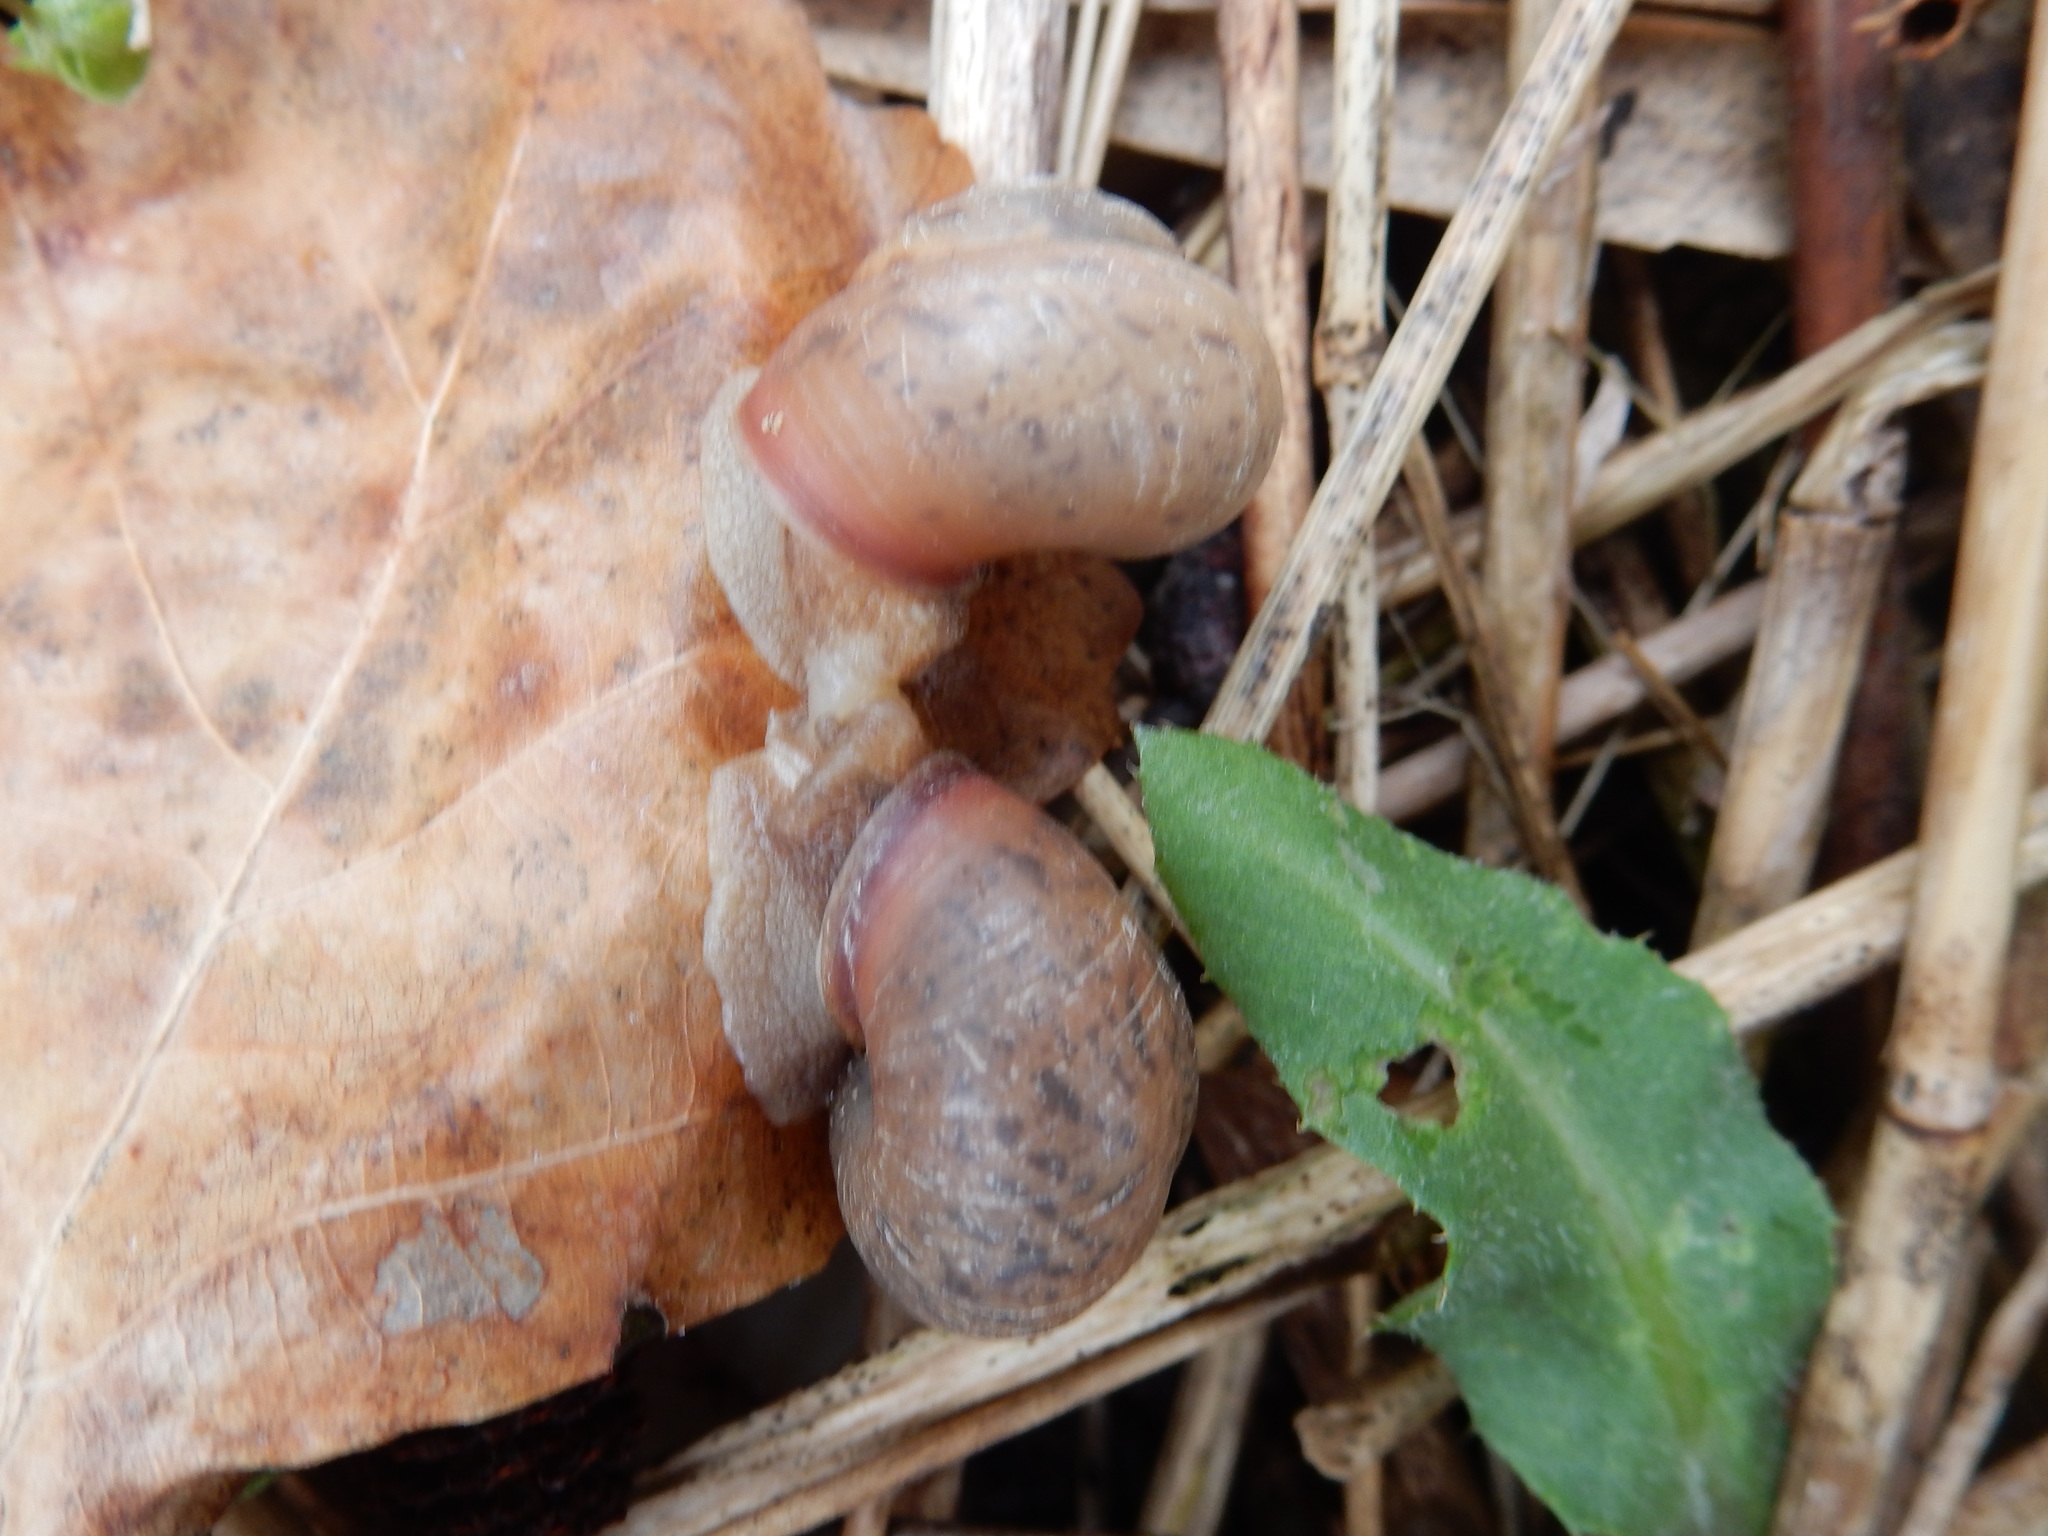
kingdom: Animalia
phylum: Mollusca
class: Gastropoda
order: Stylommatophora
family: Camaenidae
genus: Fruticicola
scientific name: Fruticicola fruticum
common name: Bush snail
